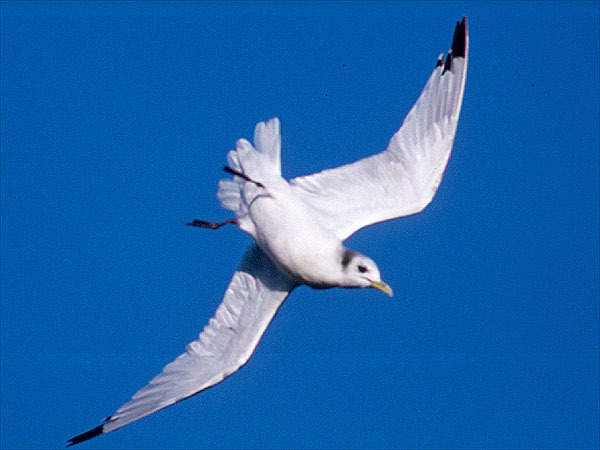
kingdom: Animalia
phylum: Chordata
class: Aves
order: Charadriiformes
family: Laridae
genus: Rissa
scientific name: Rissa tridactyla
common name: Black-legged kittiwake
